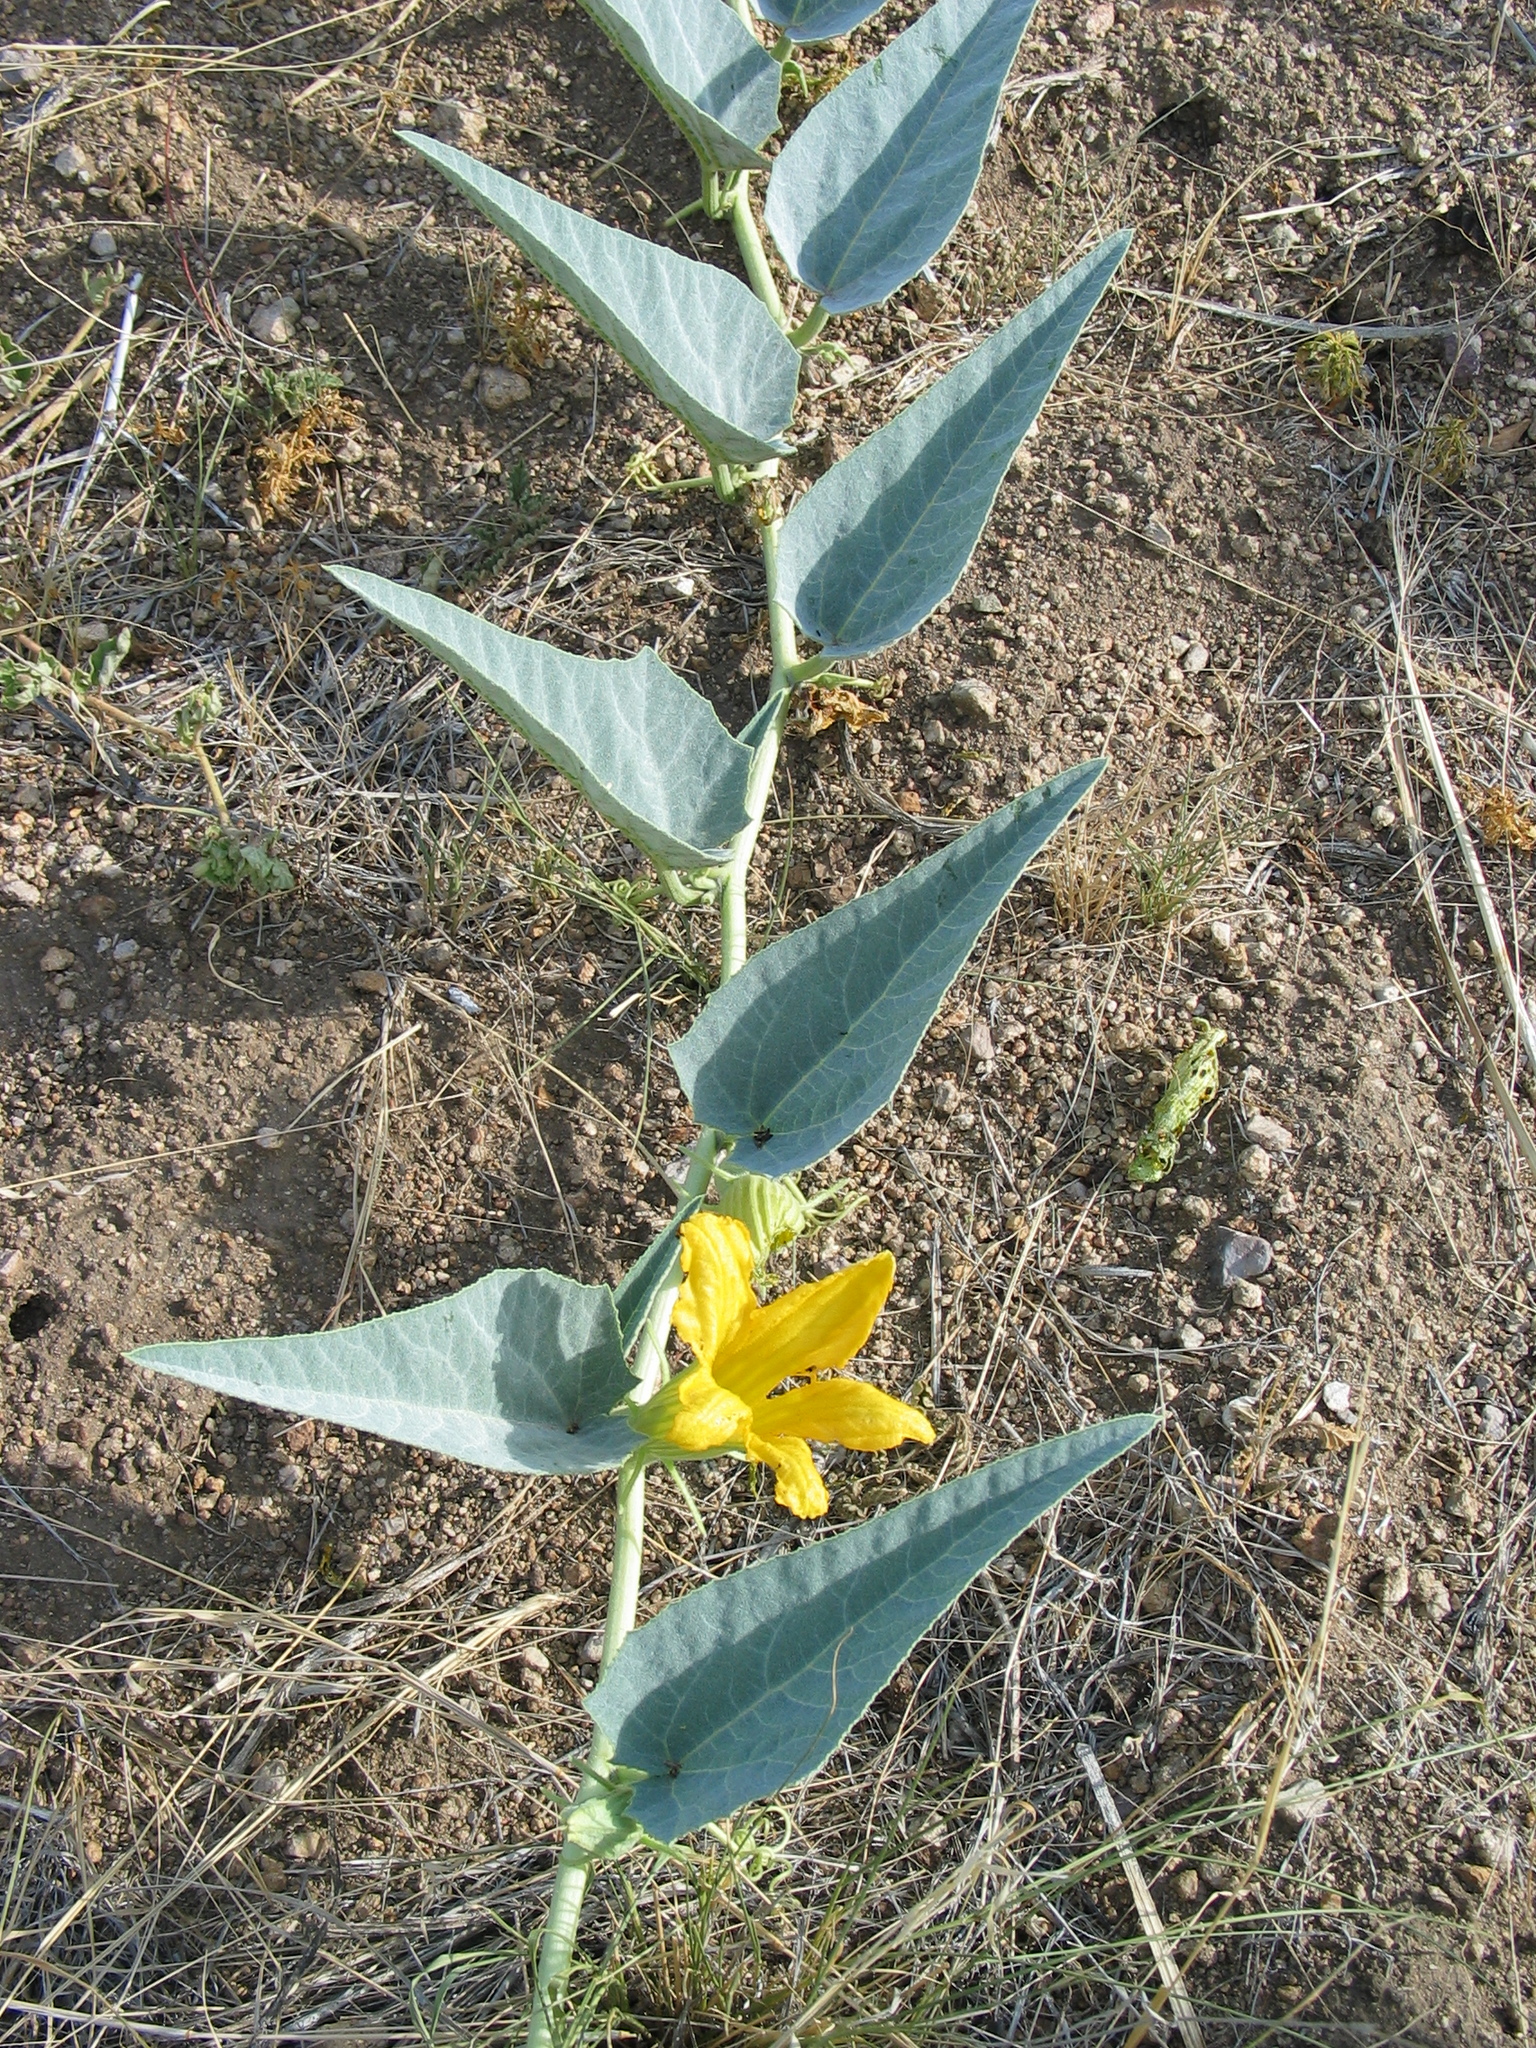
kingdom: Plantae
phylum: Tracheophyta
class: Magnoliopsida
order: Cucurbitales
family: Cucurbitaceae
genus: Cucurbita
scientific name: Cucurbita foetidissima
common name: Buffalo gourd
